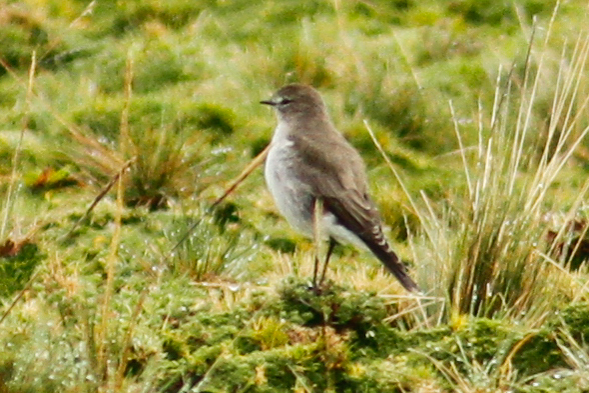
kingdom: Animalia
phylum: Chordata
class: Aves
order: Passeriformes
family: Tyrannidae
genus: Muscisaxicola
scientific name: Muscisaxicola alpinus
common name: Paramo ground tyrant
